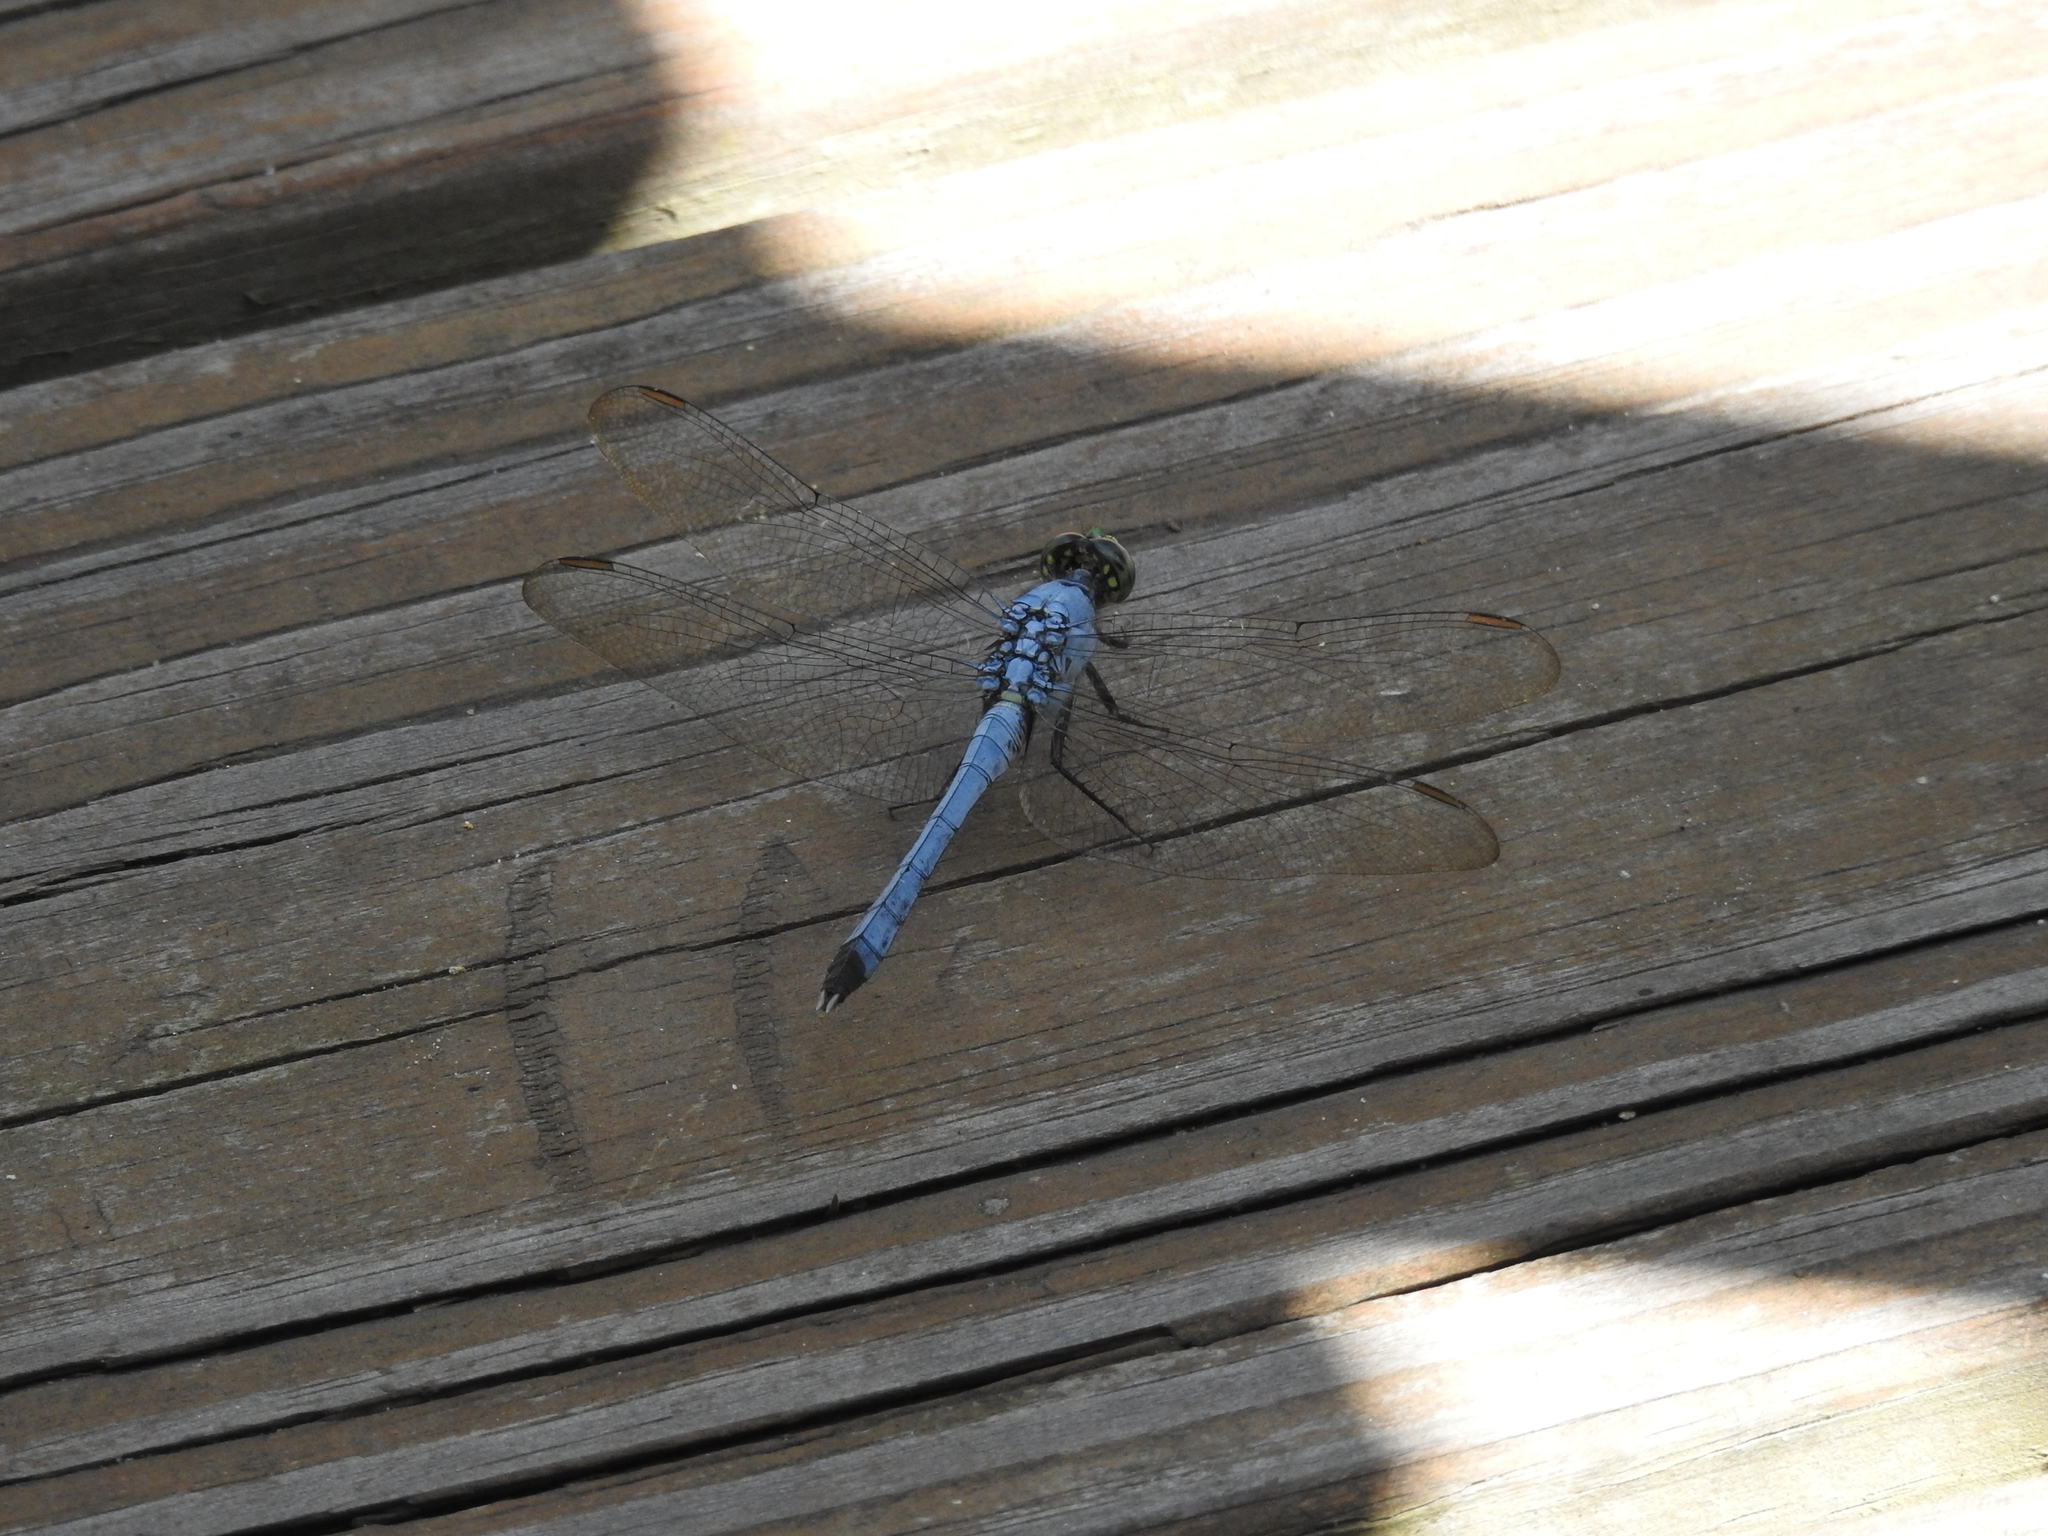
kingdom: Animalia
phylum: Arthropoda
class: Insecta
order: Odonata
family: Libellulidae
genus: Erythemis
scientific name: Erythemis simplicicollis
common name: Eastern pondhawk
